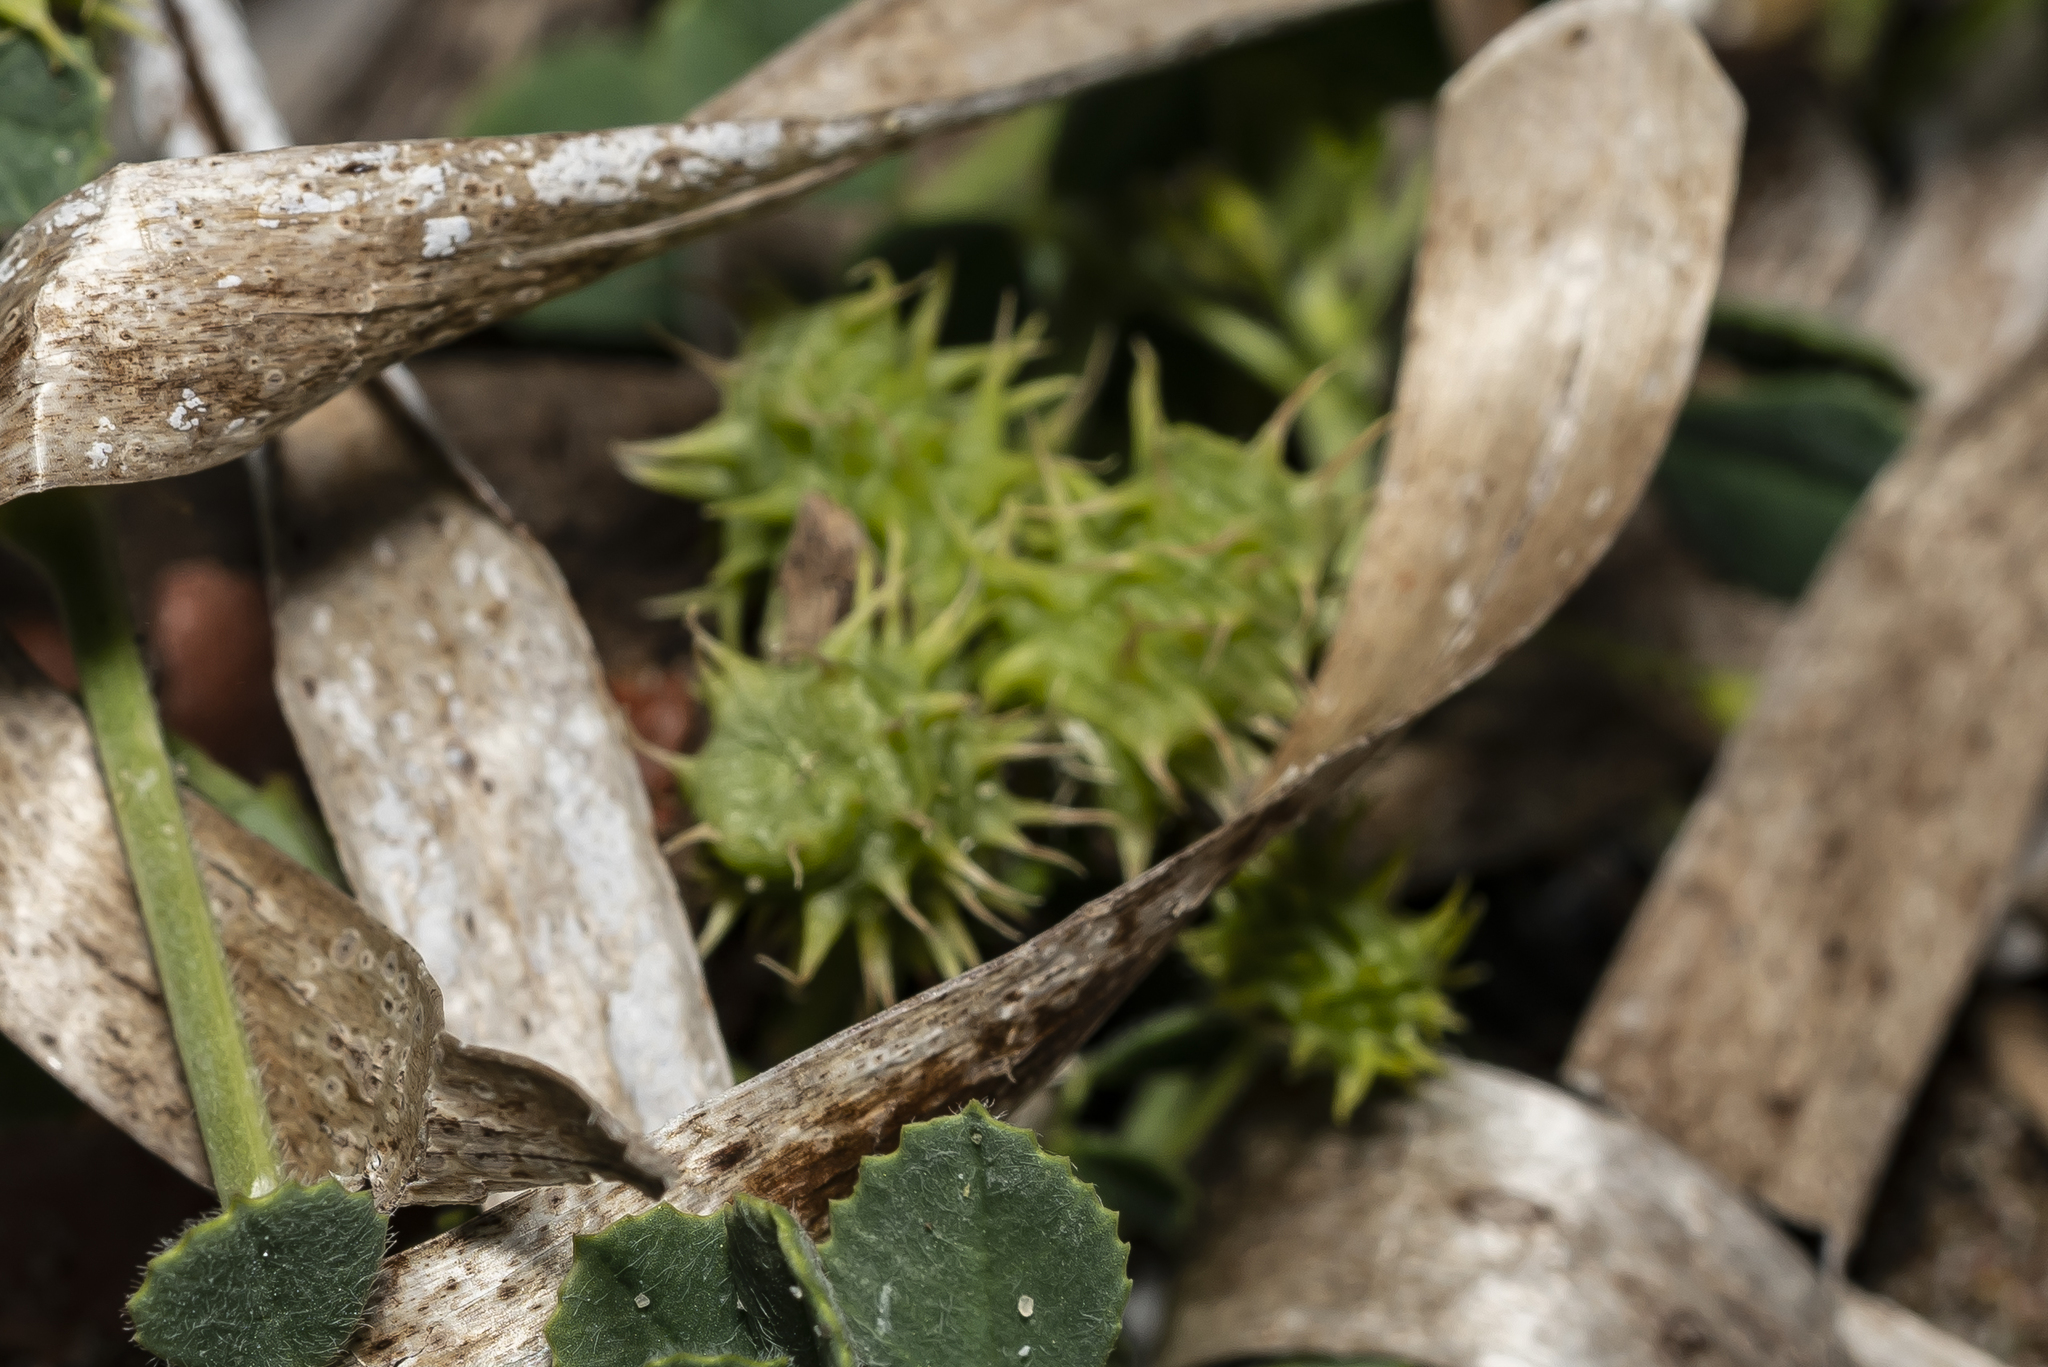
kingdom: Plantae
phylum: Tracheophyta
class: Magnoliopsida
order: Fabales
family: Fabaceae
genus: Medicago
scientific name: Medicago littoralis
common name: Shore medick
